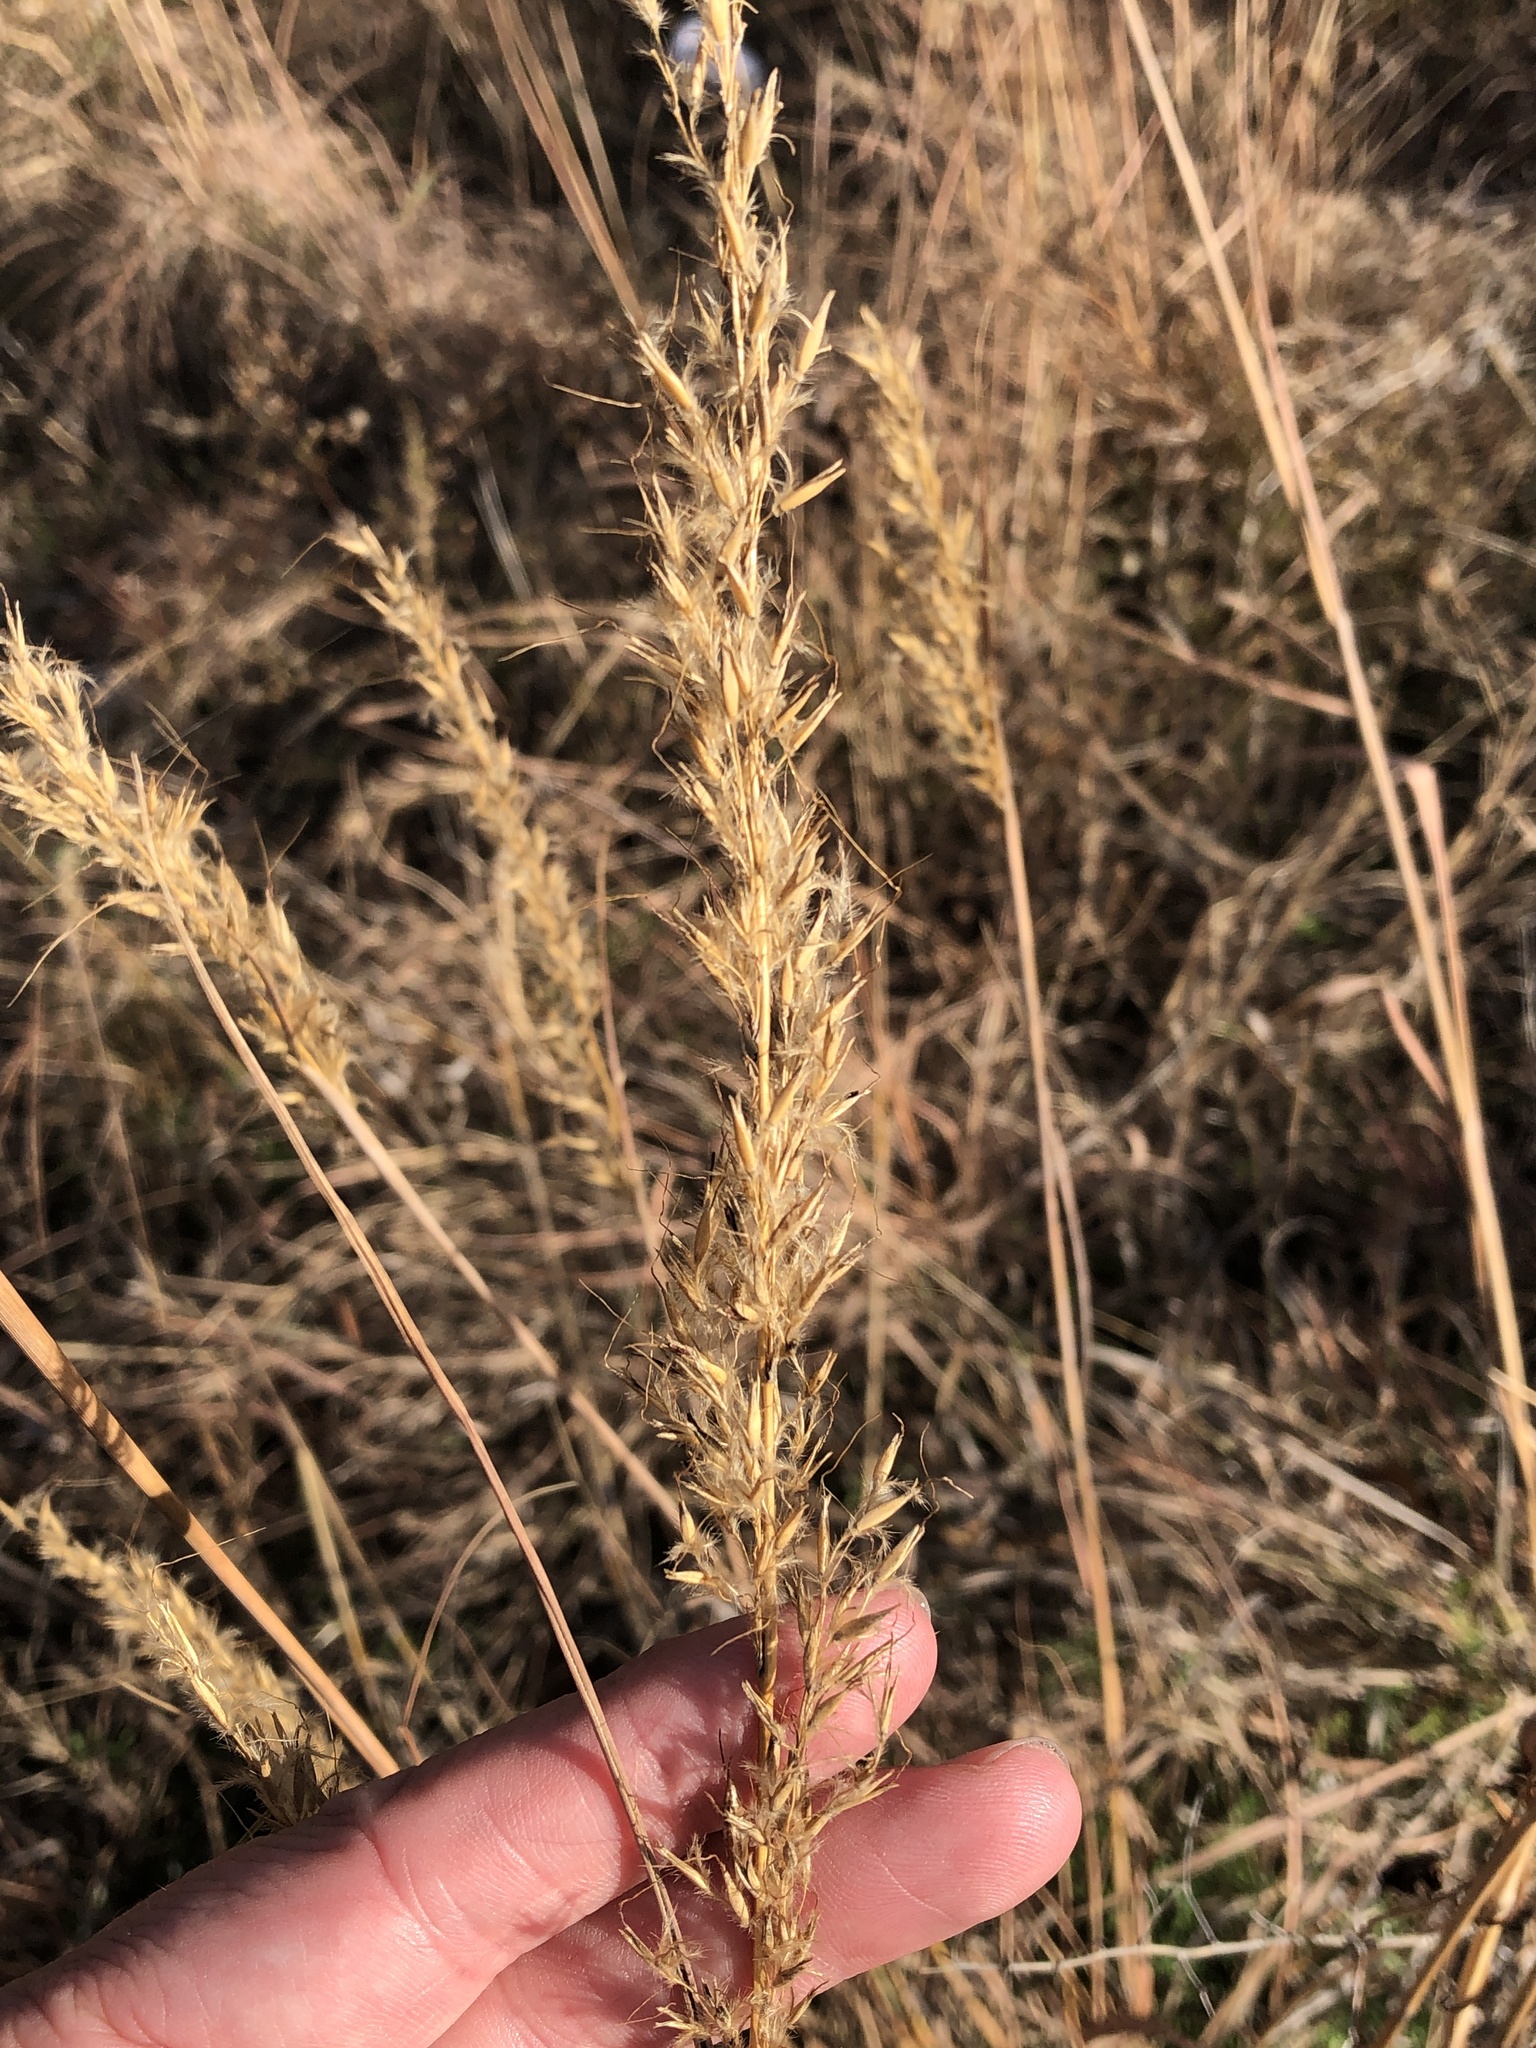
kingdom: Plantae
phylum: Tracheophyta
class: Liliopsida
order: Poales
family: Poaceae
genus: Sorghastrum
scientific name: Sorghastrum nutans
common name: Indian grass
